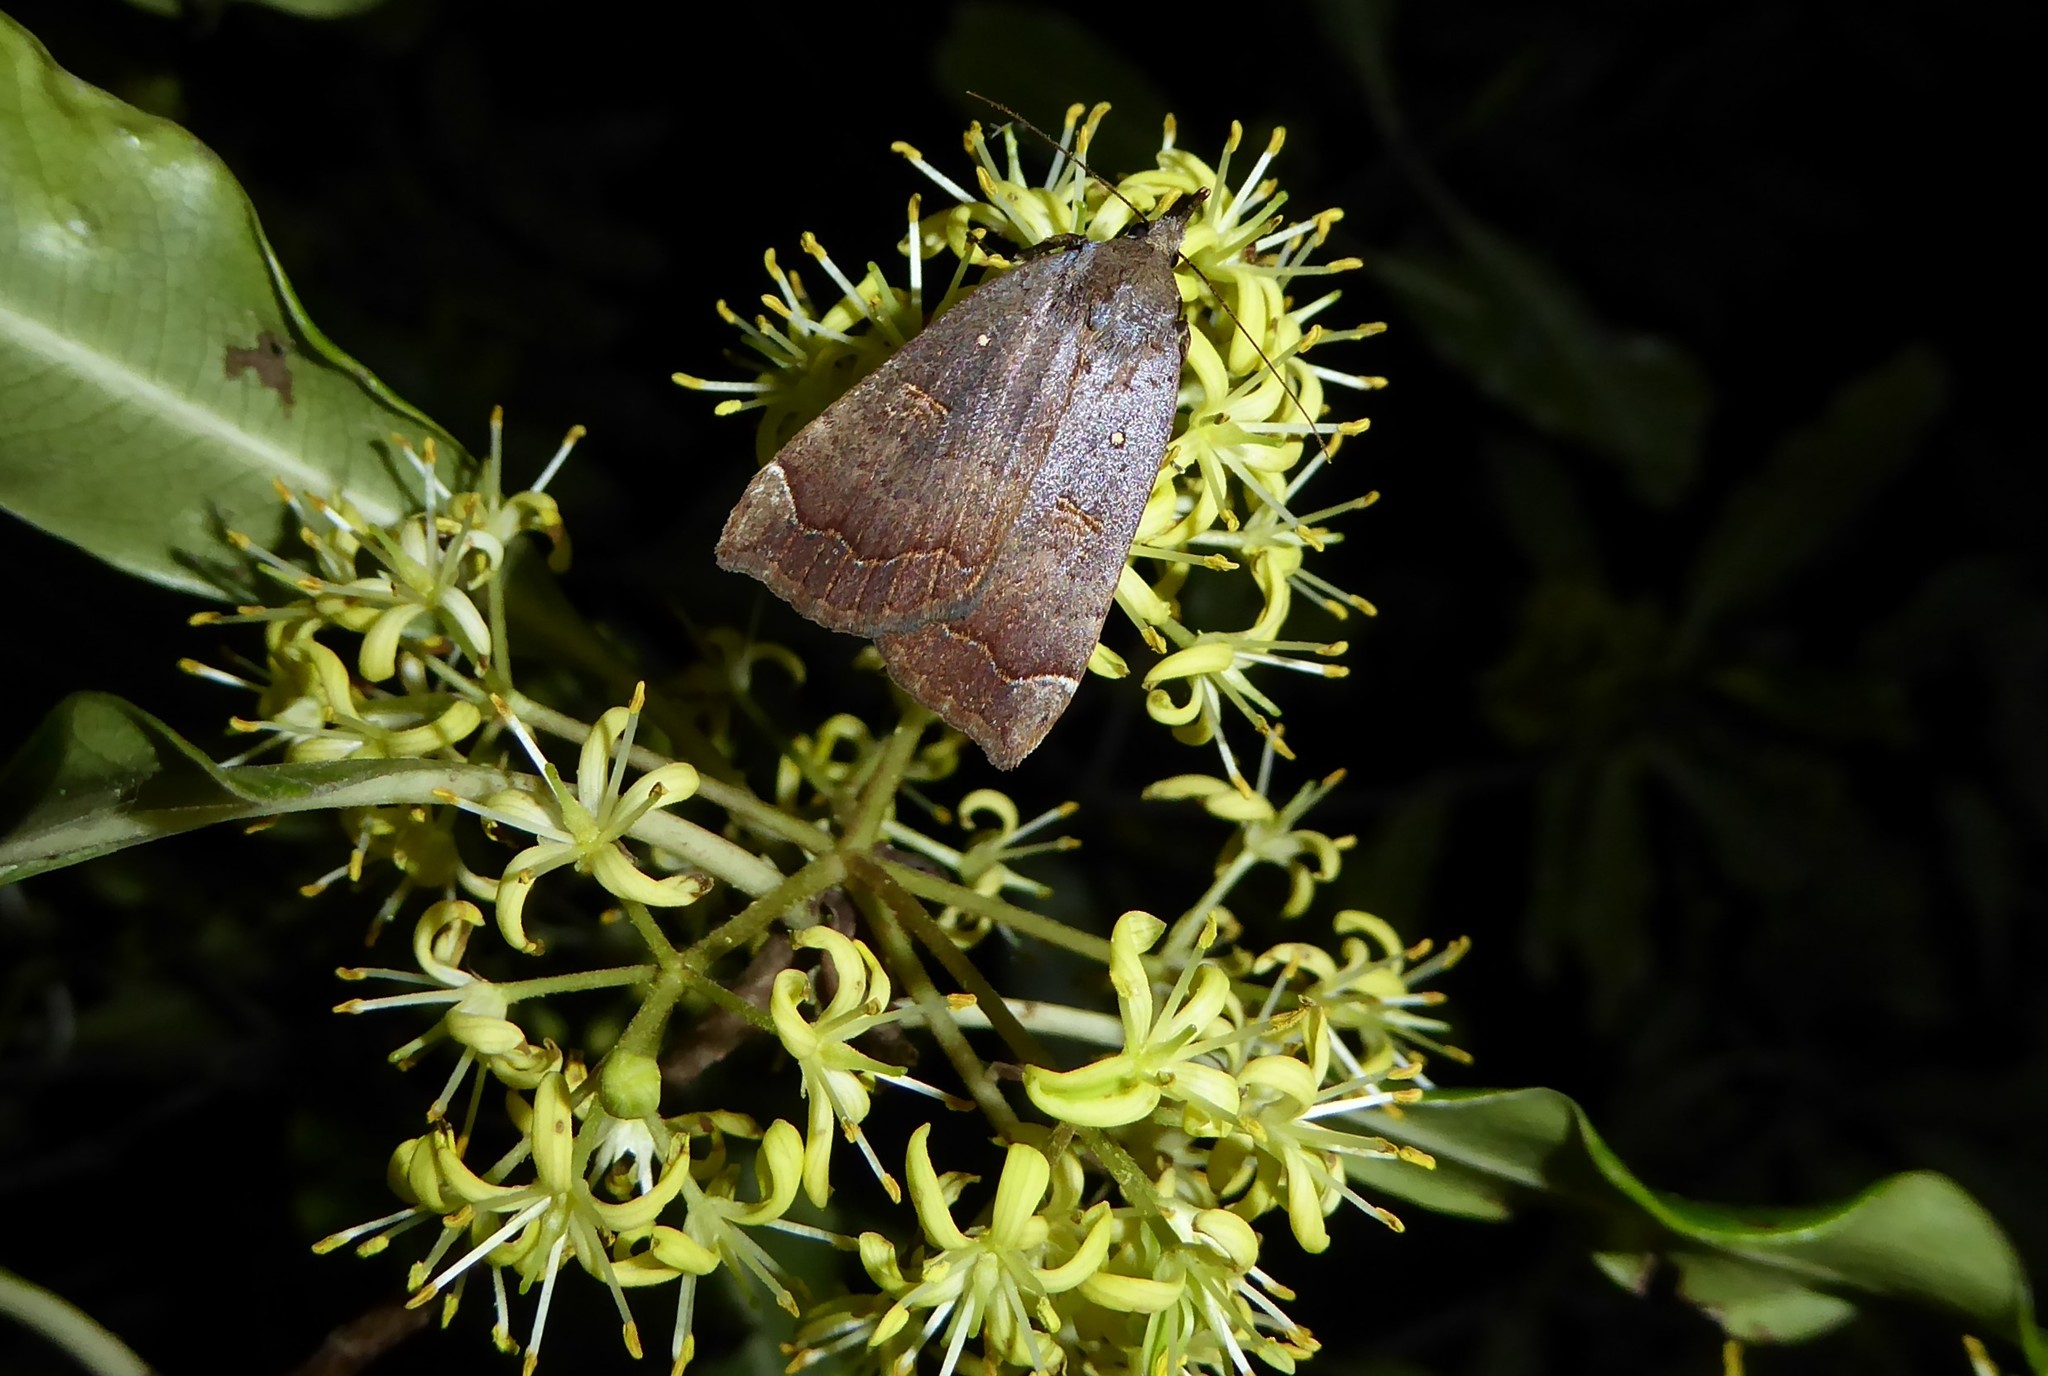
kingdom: Animalia
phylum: Arthropoda
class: Insecta
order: Lepidoptera
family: Erebidae
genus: Rhapsa
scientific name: Rhapsa scotosialis
